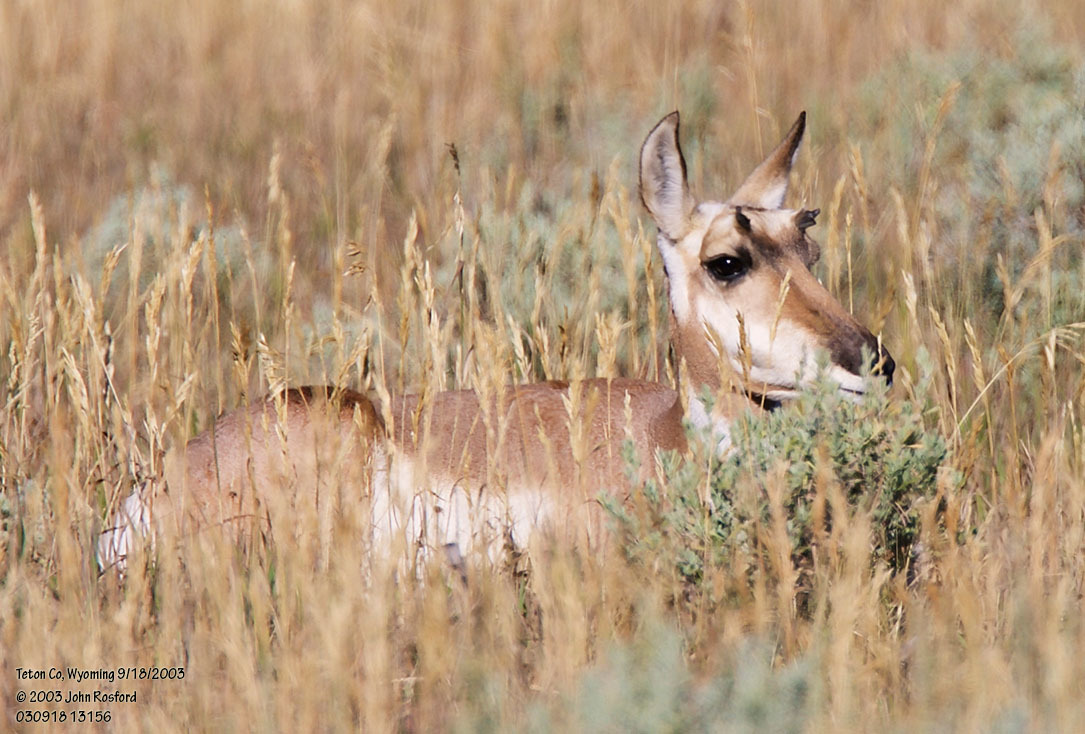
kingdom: Animalia
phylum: Chordata
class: Mammalia
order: Artiodactyla
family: Antilocapridae
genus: Antilocapra
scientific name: Antilocapra americana
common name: Pronghorn
